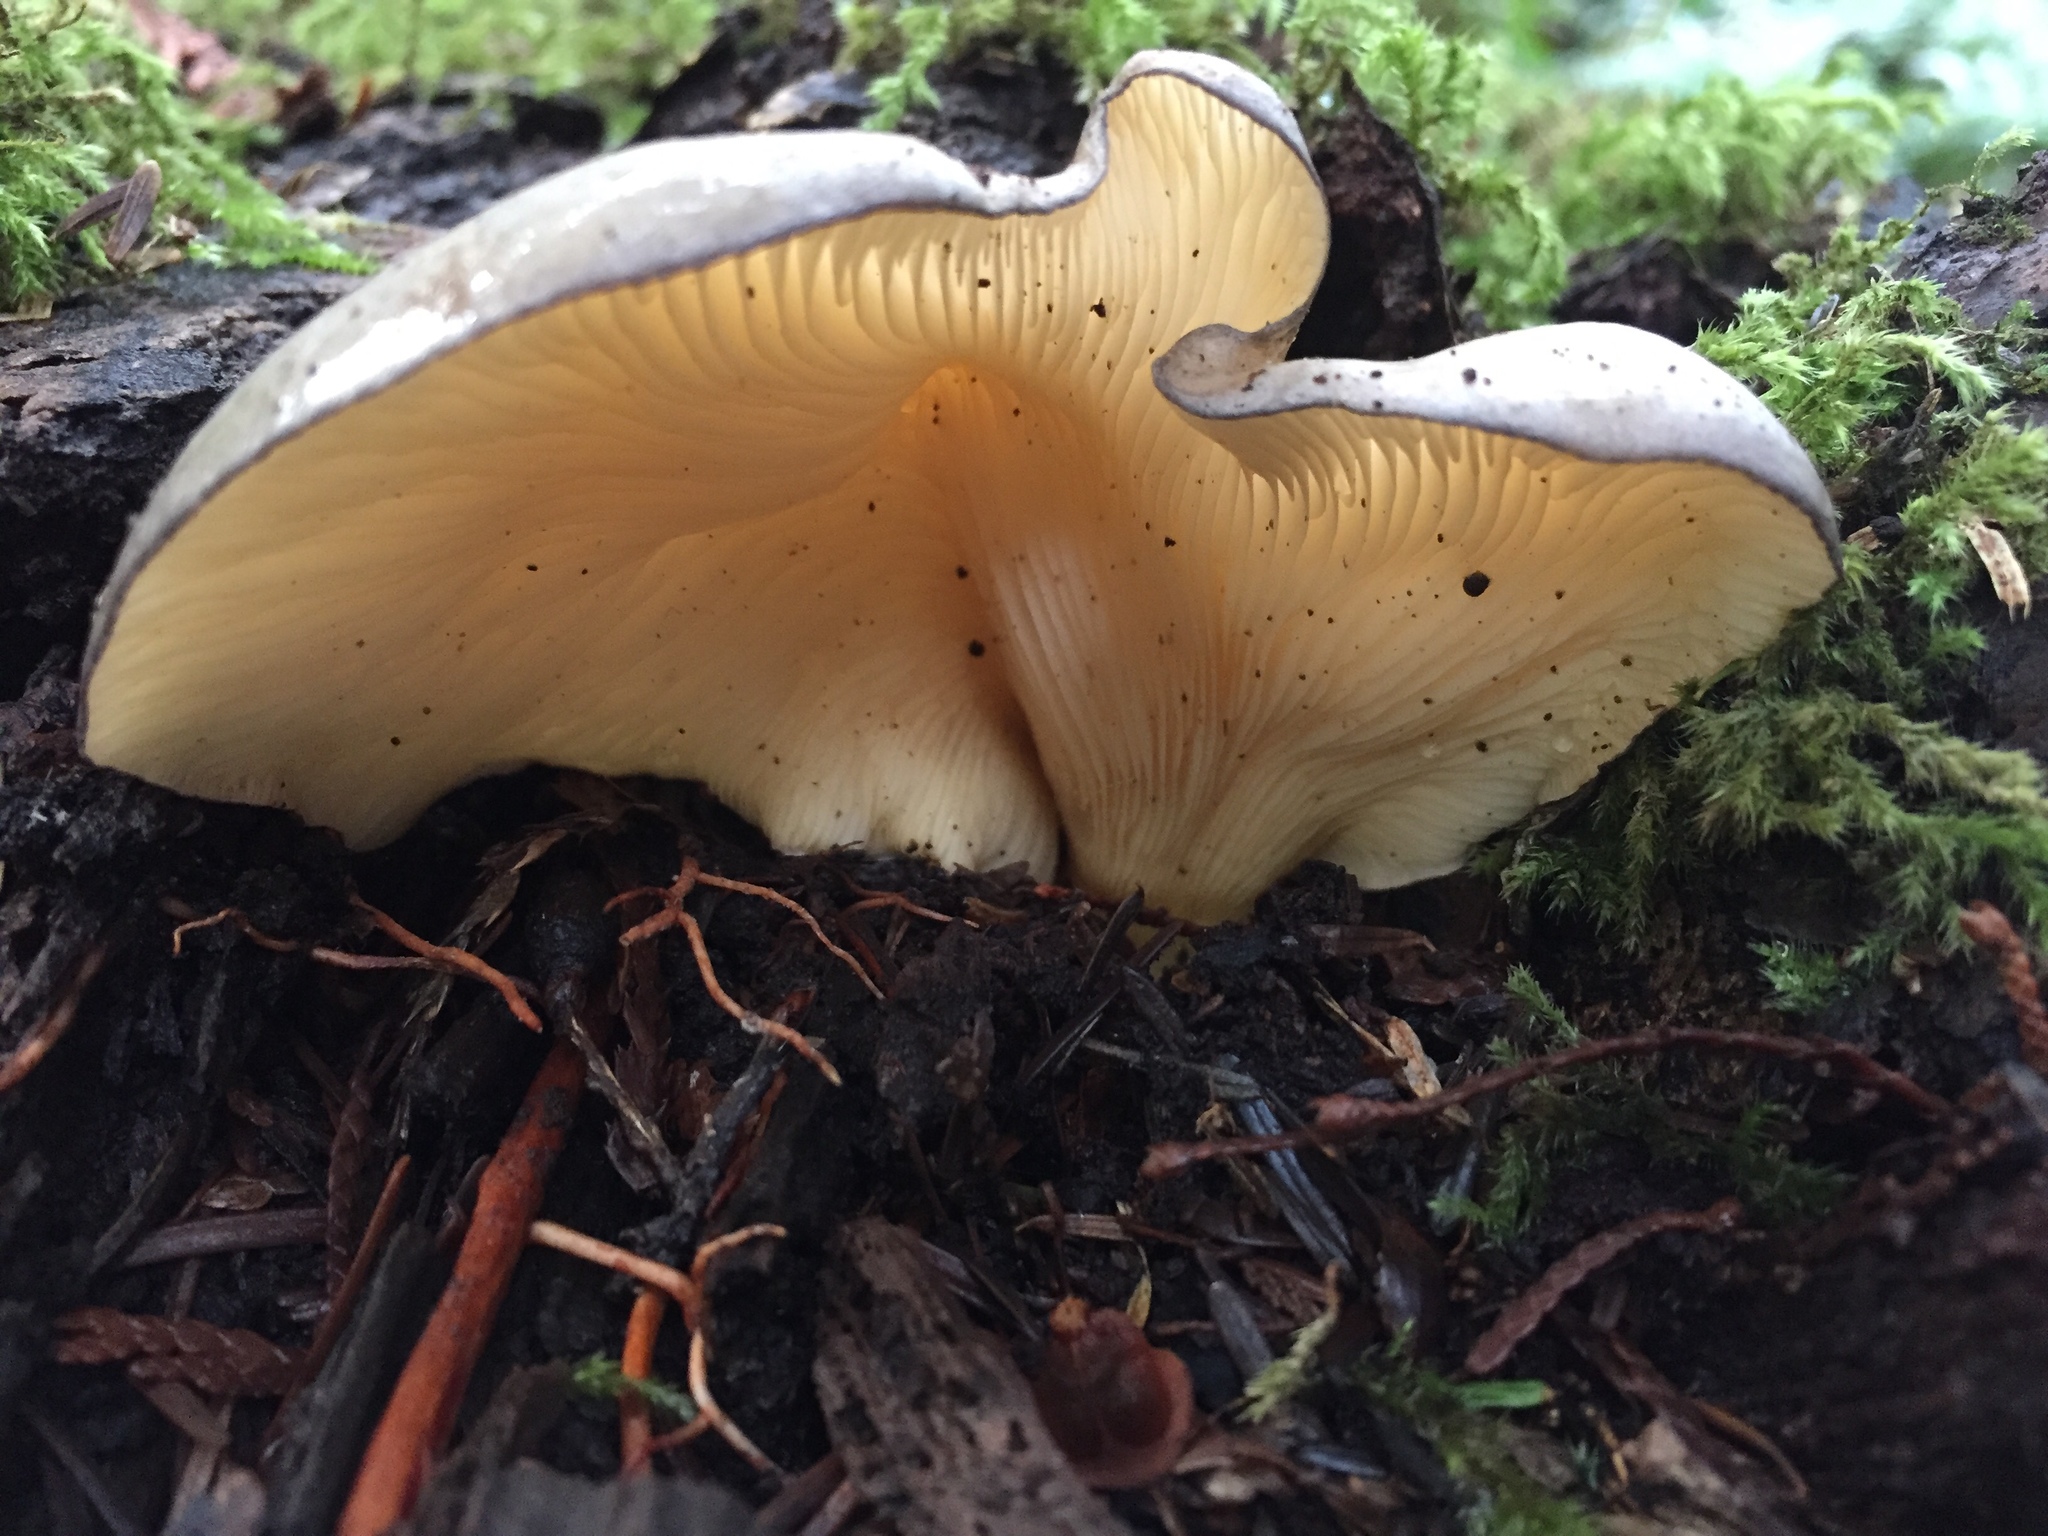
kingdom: Fungi
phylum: Basidiomycota
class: Agaricomycetes
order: Agaricales
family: Sarcomyxaceae
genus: Sarcomyxa
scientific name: Sarcomyxa serotina
